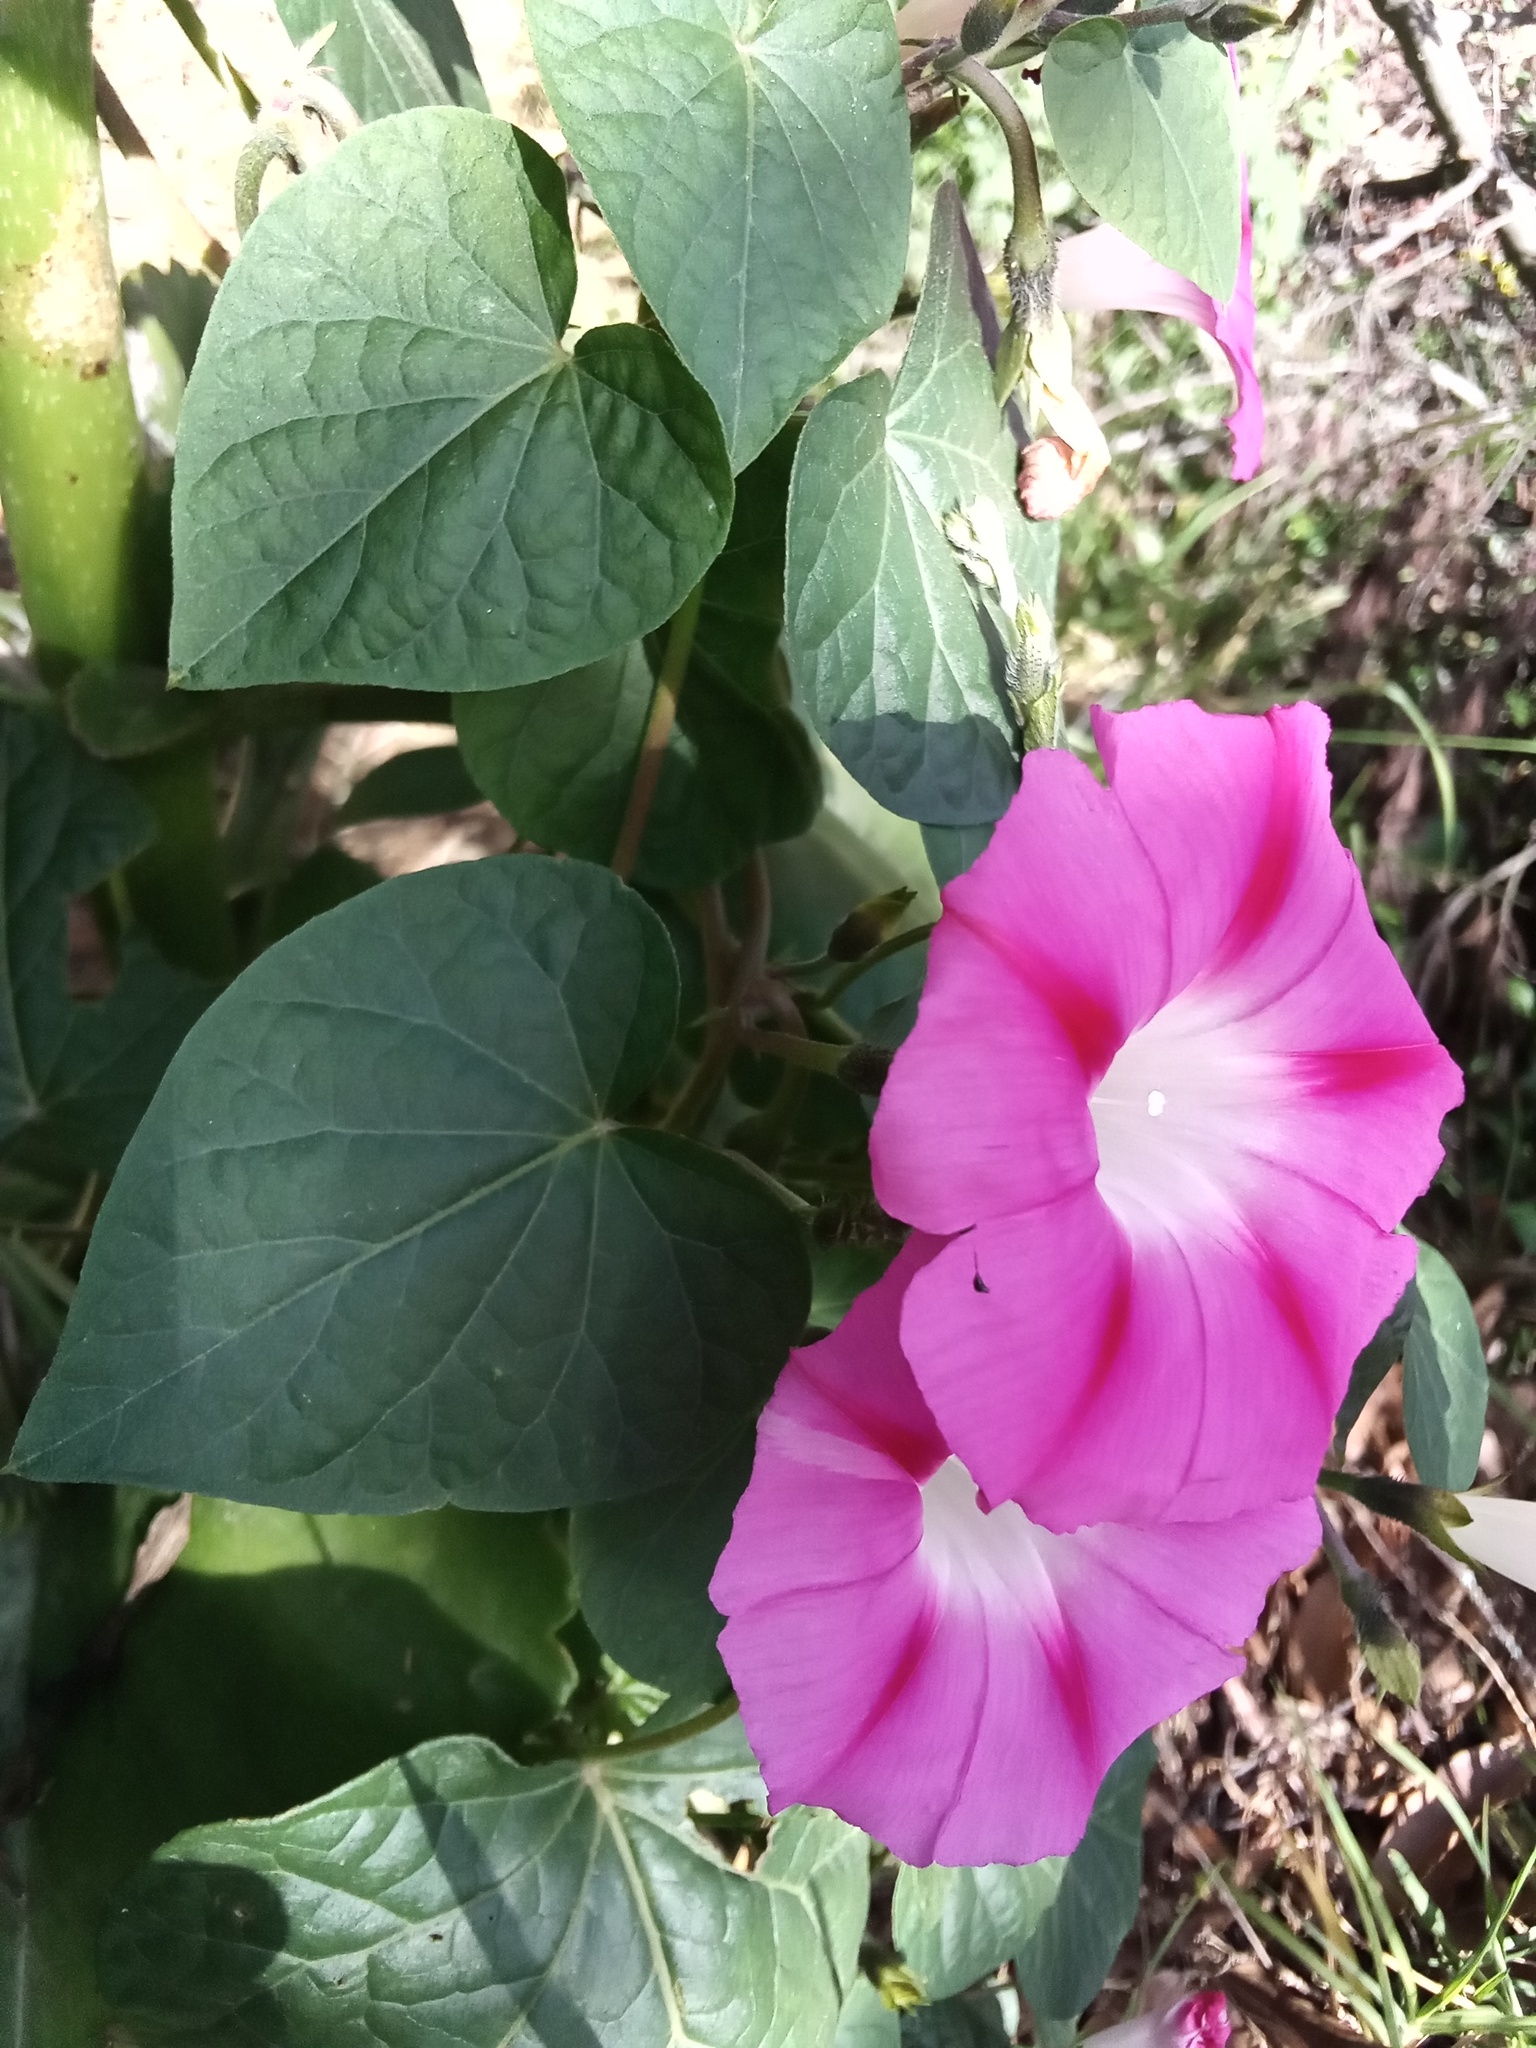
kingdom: Plantae
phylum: Tracheophyta
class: Magnoliopsida
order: Solanales
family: Convolvulaceae
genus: Ipomoea
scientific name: Ipomoea purpurea
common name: Common morning-glory
